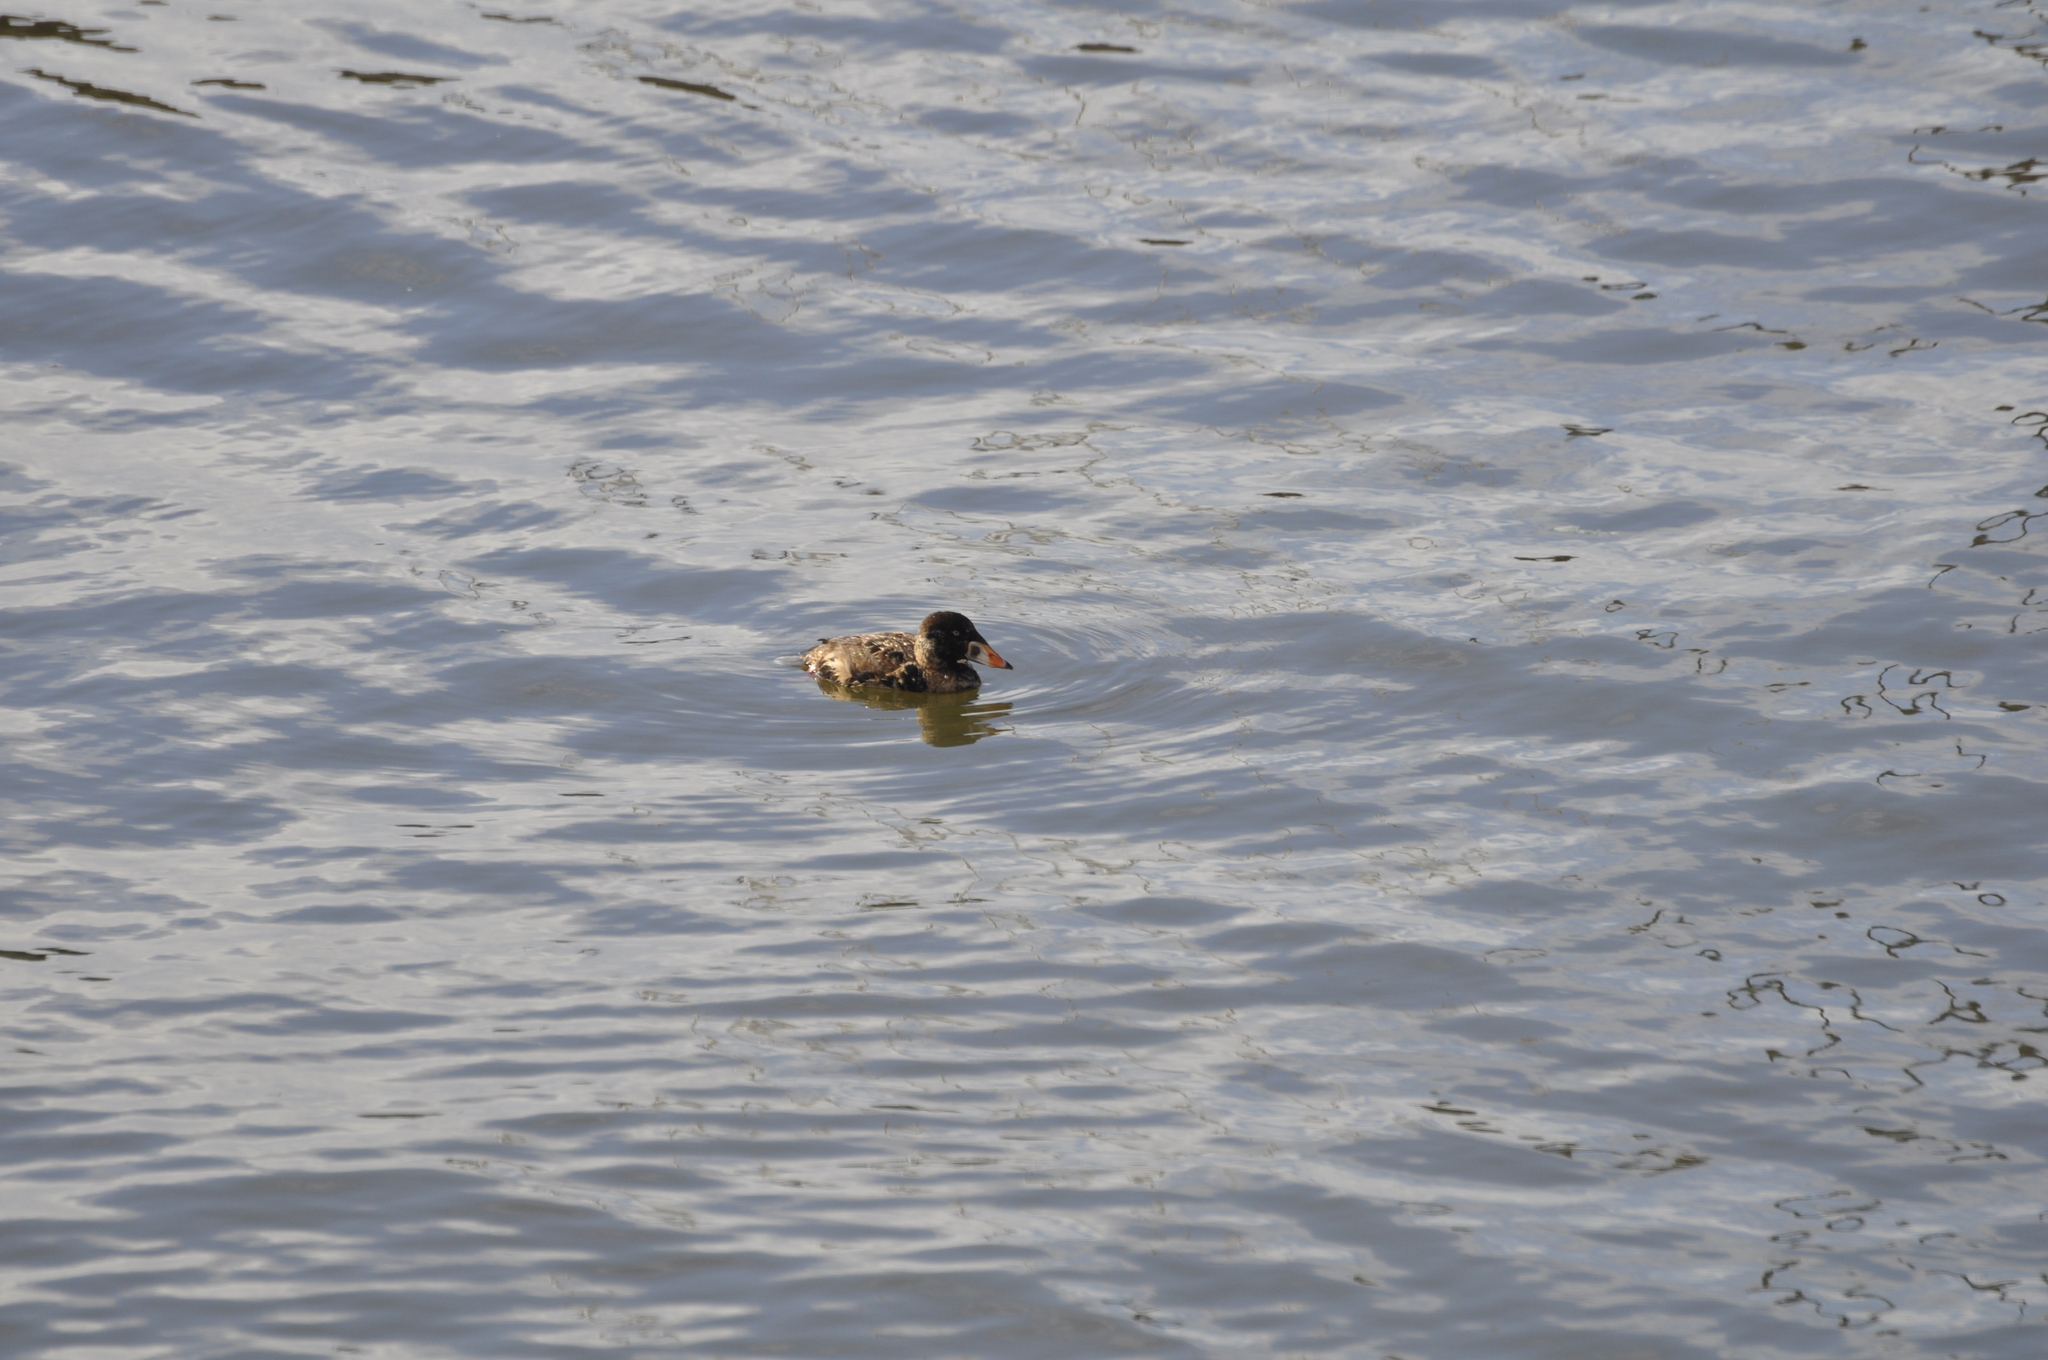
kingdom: Animalia
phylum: Chordata
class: Aves
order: Anseriformes
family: Anatidae
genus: Melanitta
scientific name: Melanitta perspicillata
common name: Surf scoter
